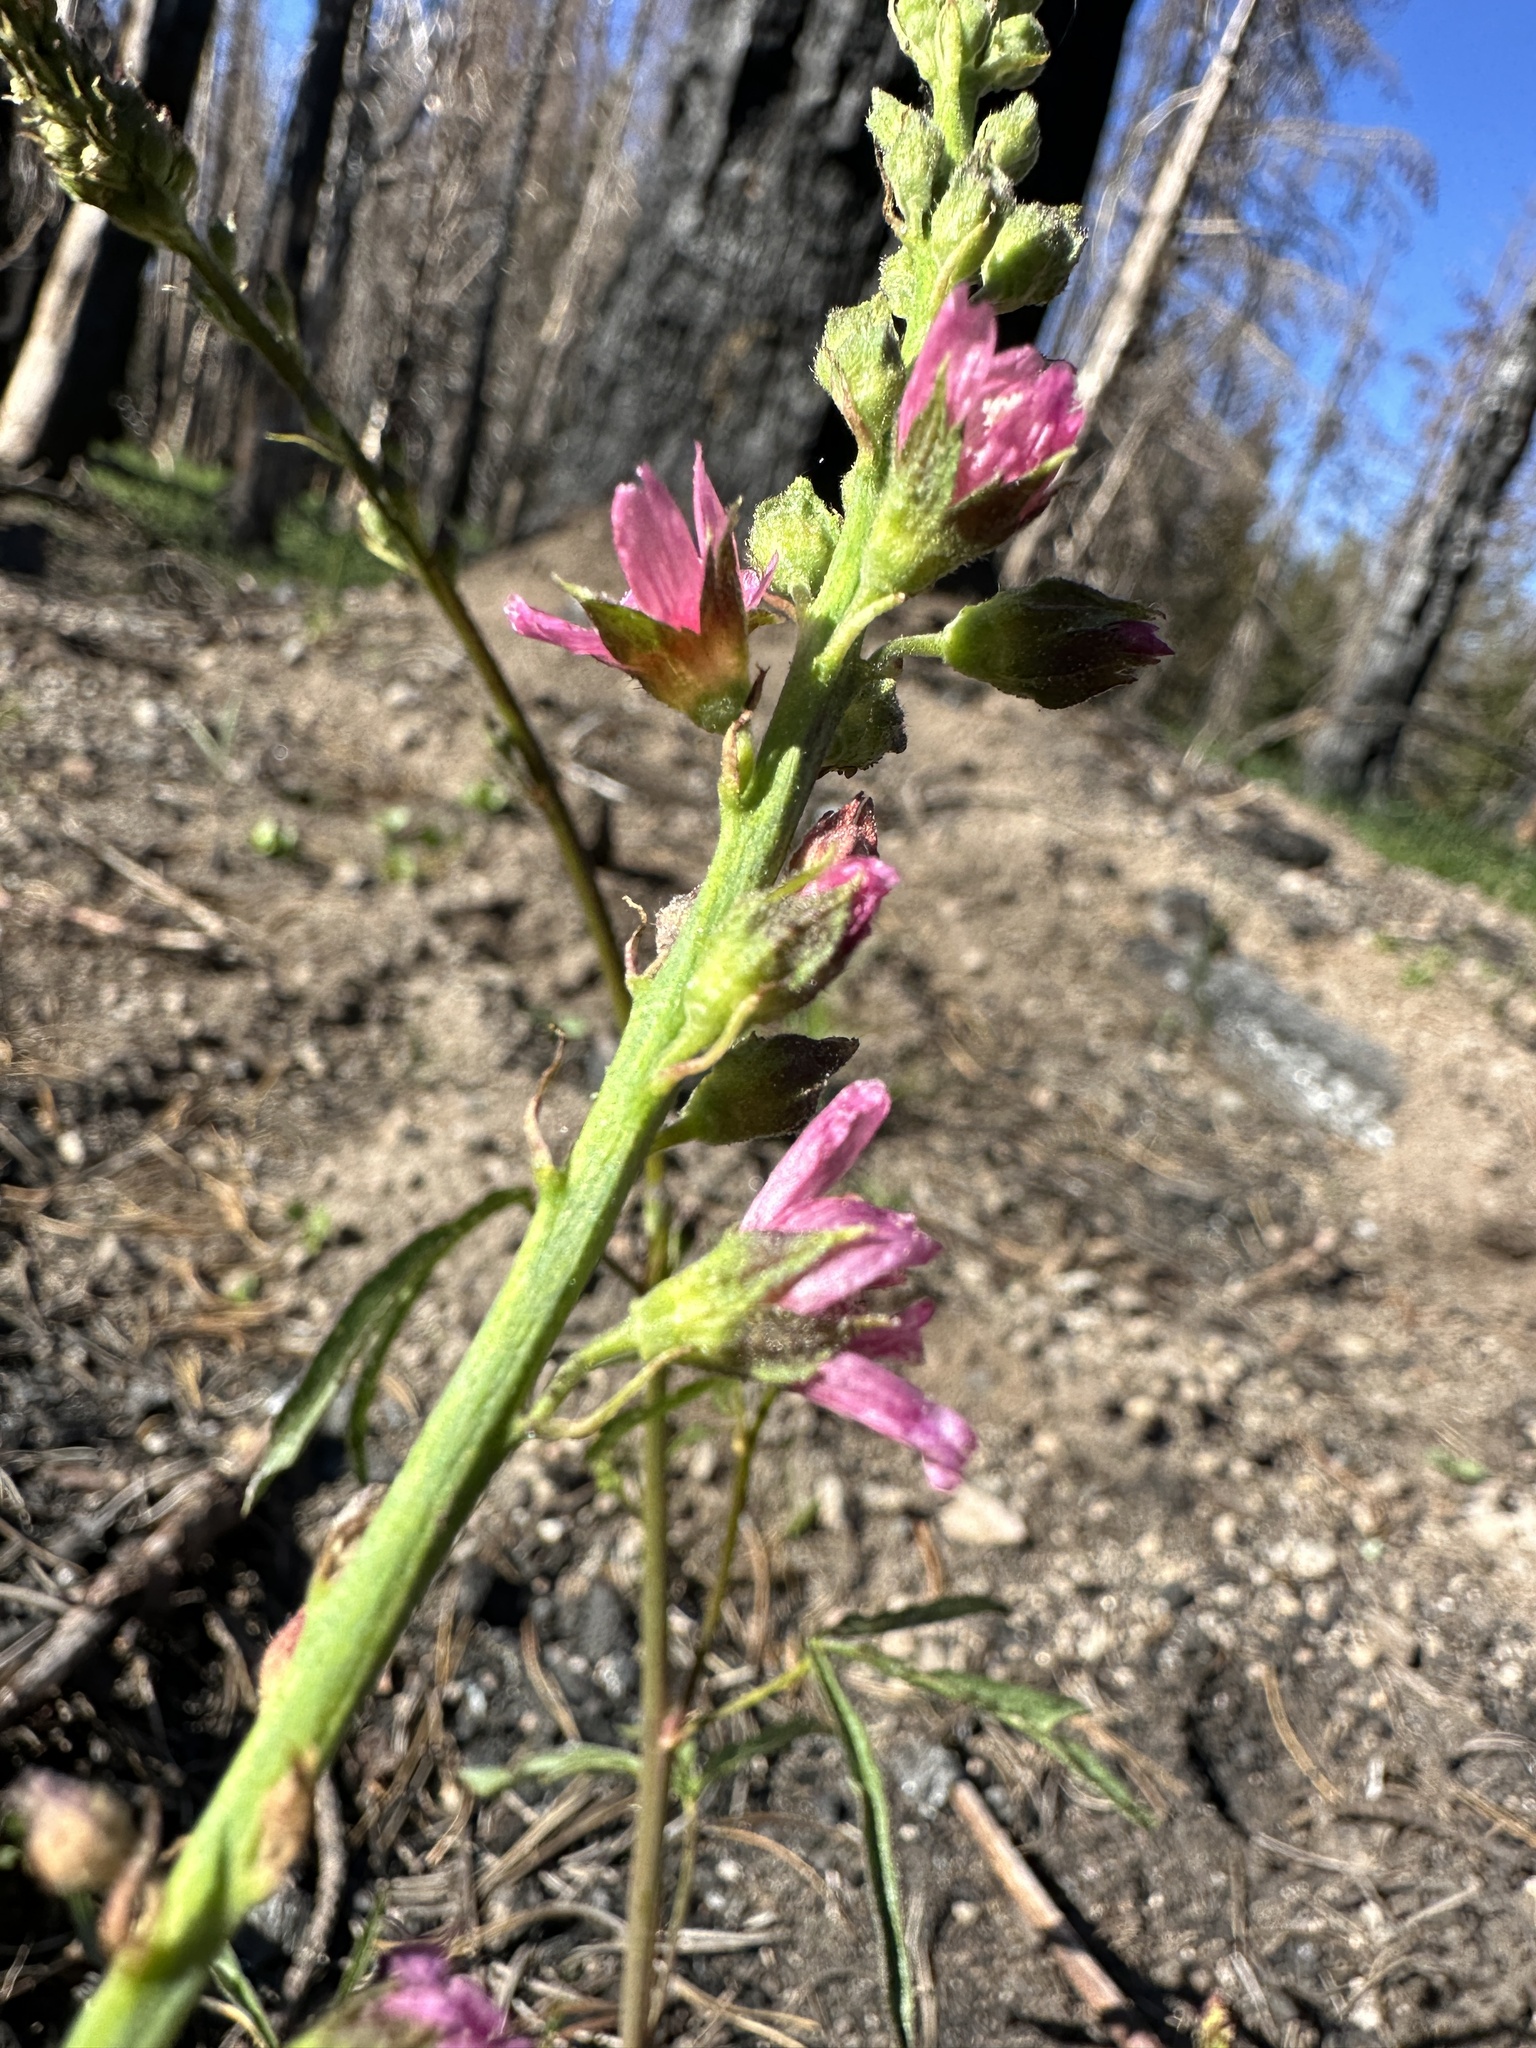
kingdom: Plantae
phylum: Tracheophyta
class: Magnoliopsida
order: Malvales
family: Malvaceae
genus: Sidalcea
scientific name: Sidalcea oregana
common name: Oregon checker-mallow
